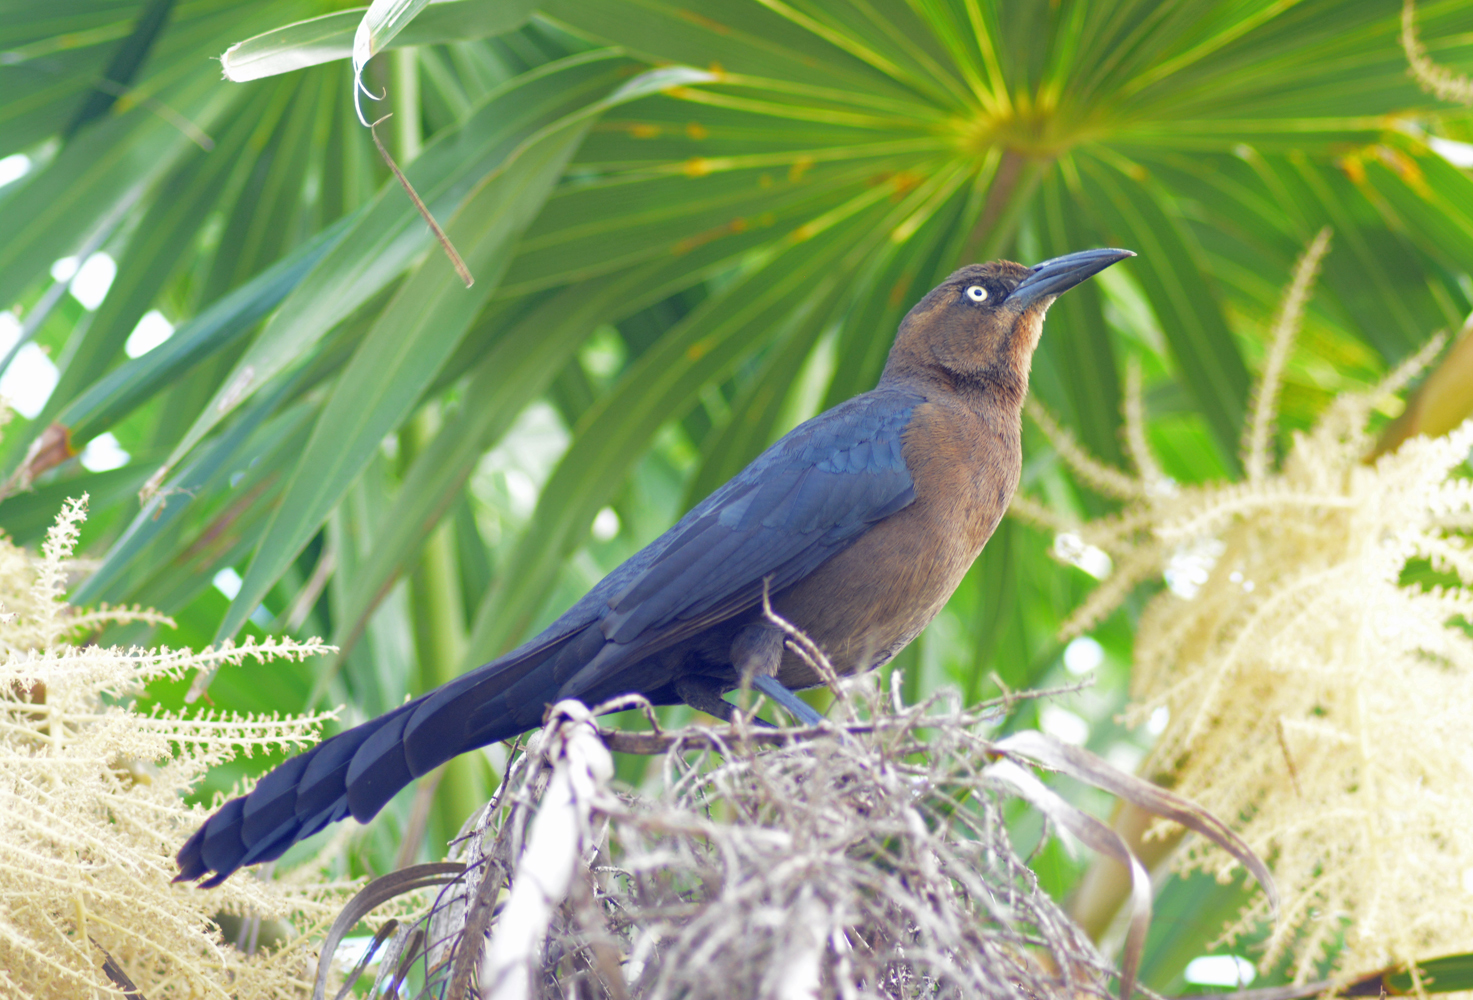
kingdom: Animalia
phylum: Chordata
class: Aves
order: Passeriformes
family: Icteridae
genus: Quiscalus
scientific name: Quiscalus mexicanus
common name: Great-tailed grackle
